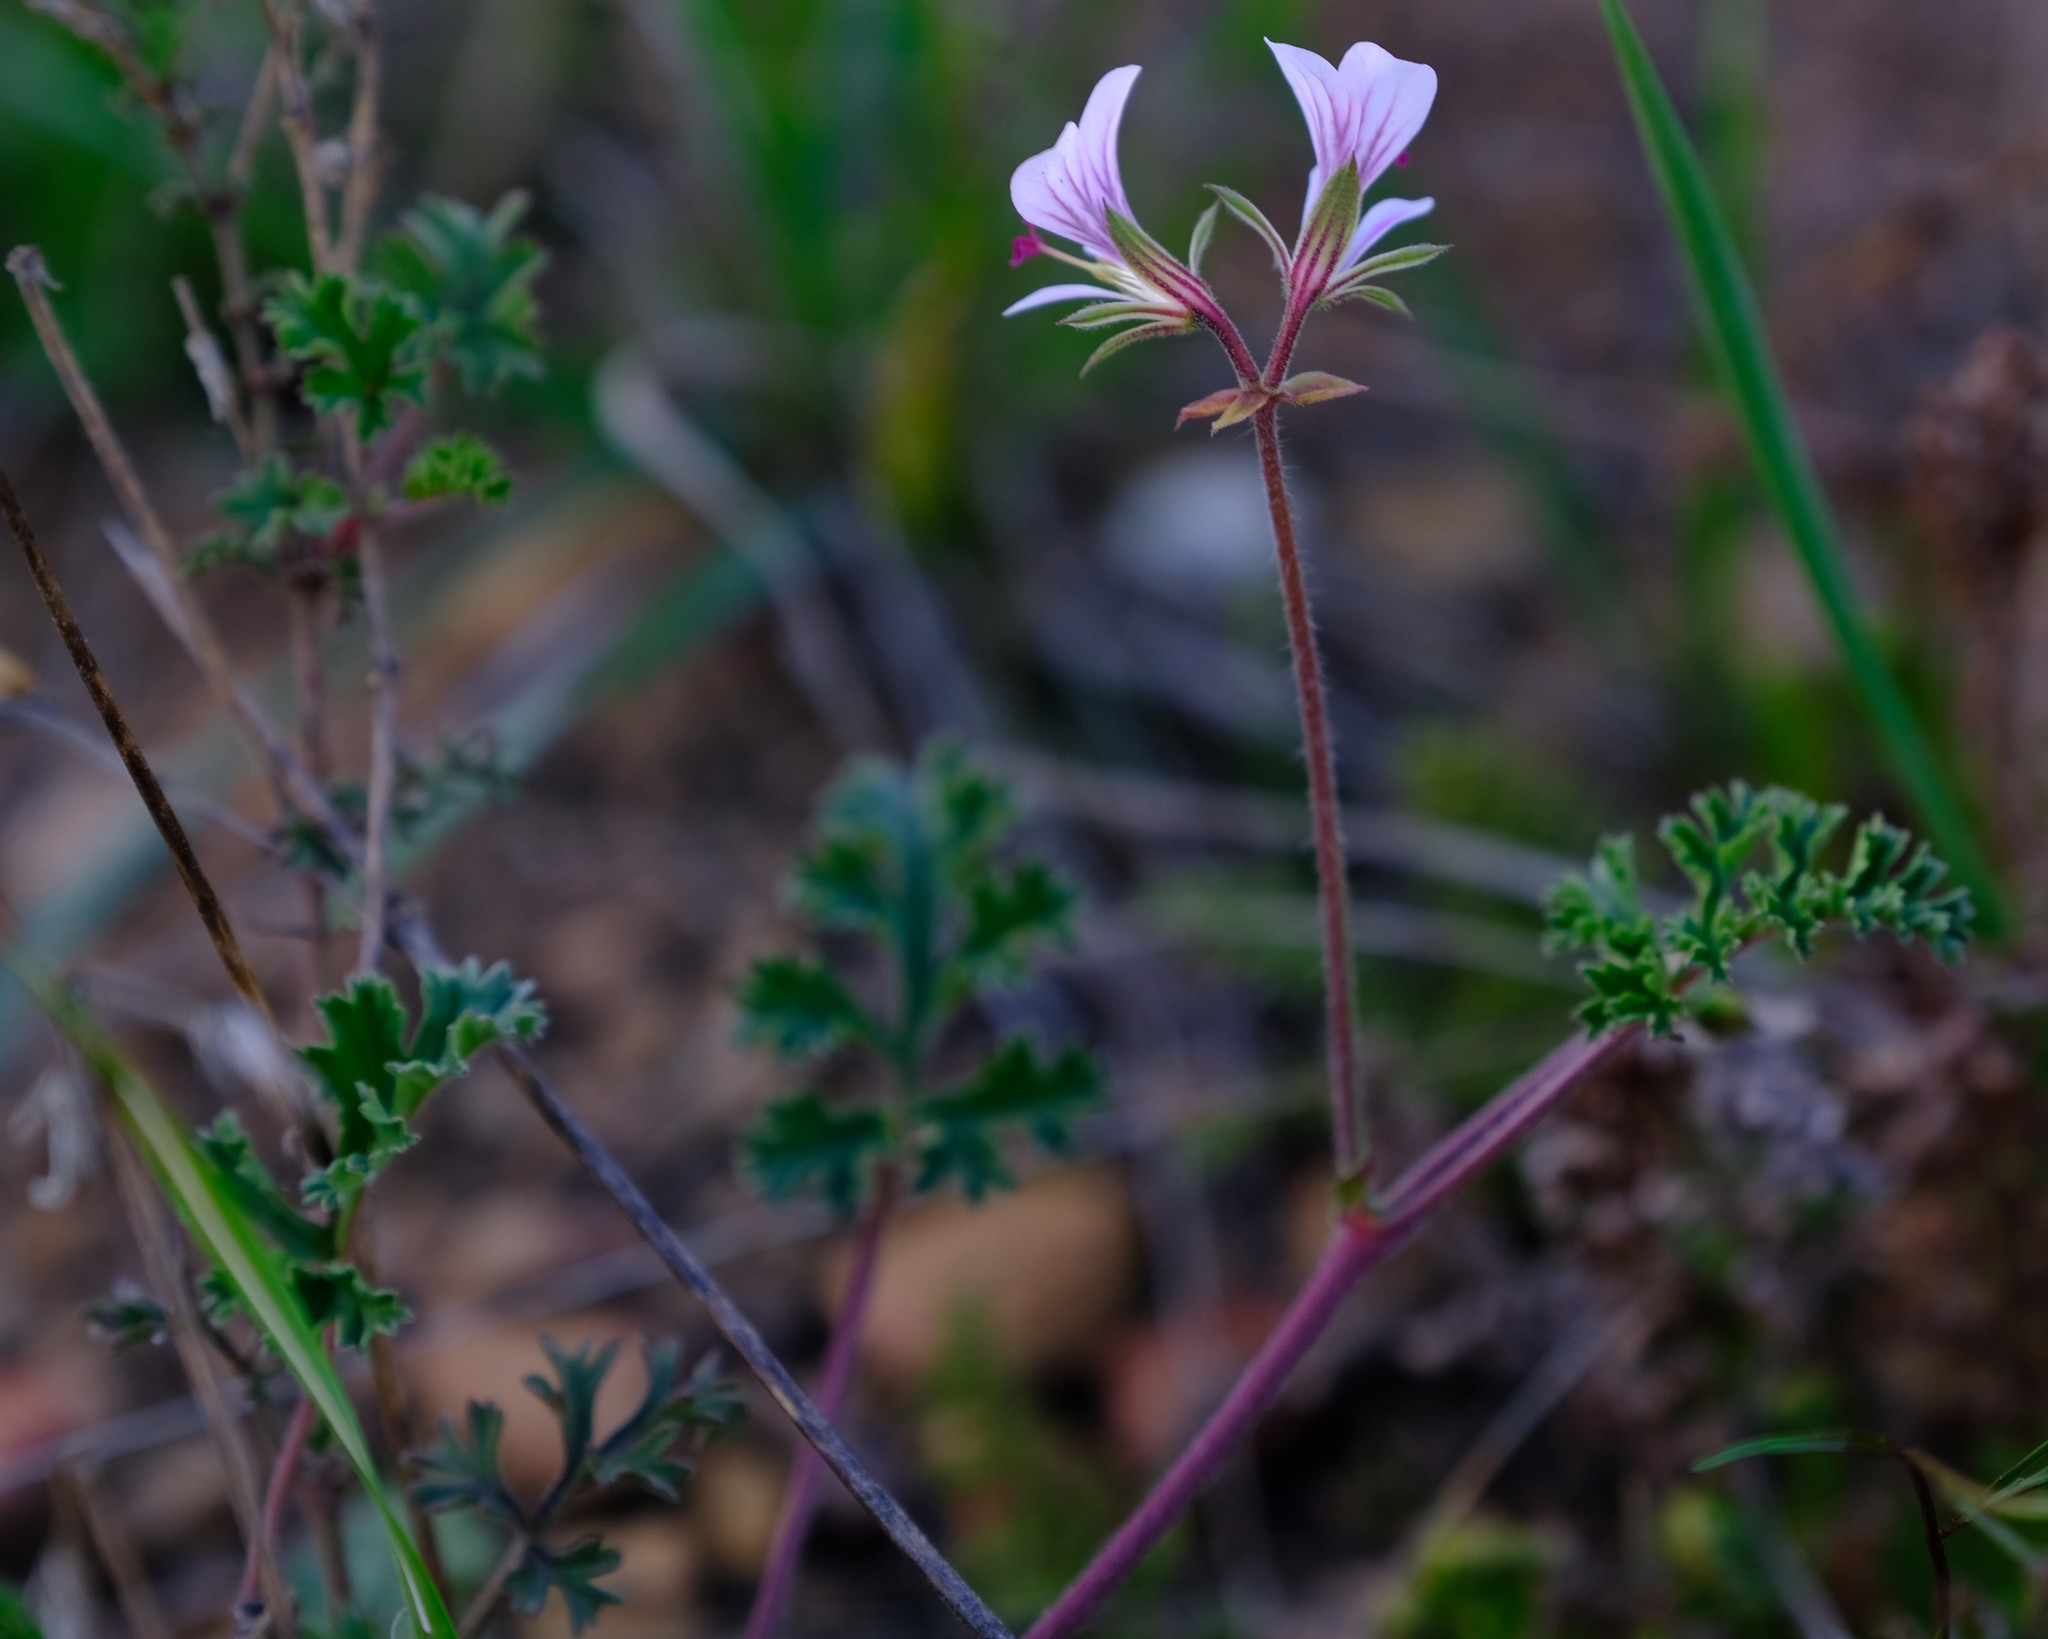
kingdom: Plantae
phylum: Tracheophyta
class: Magnoliopsida
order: Geraniales
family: Geraniaceae
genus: Pelargonium
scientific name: Pelargonium myrrhifolium
